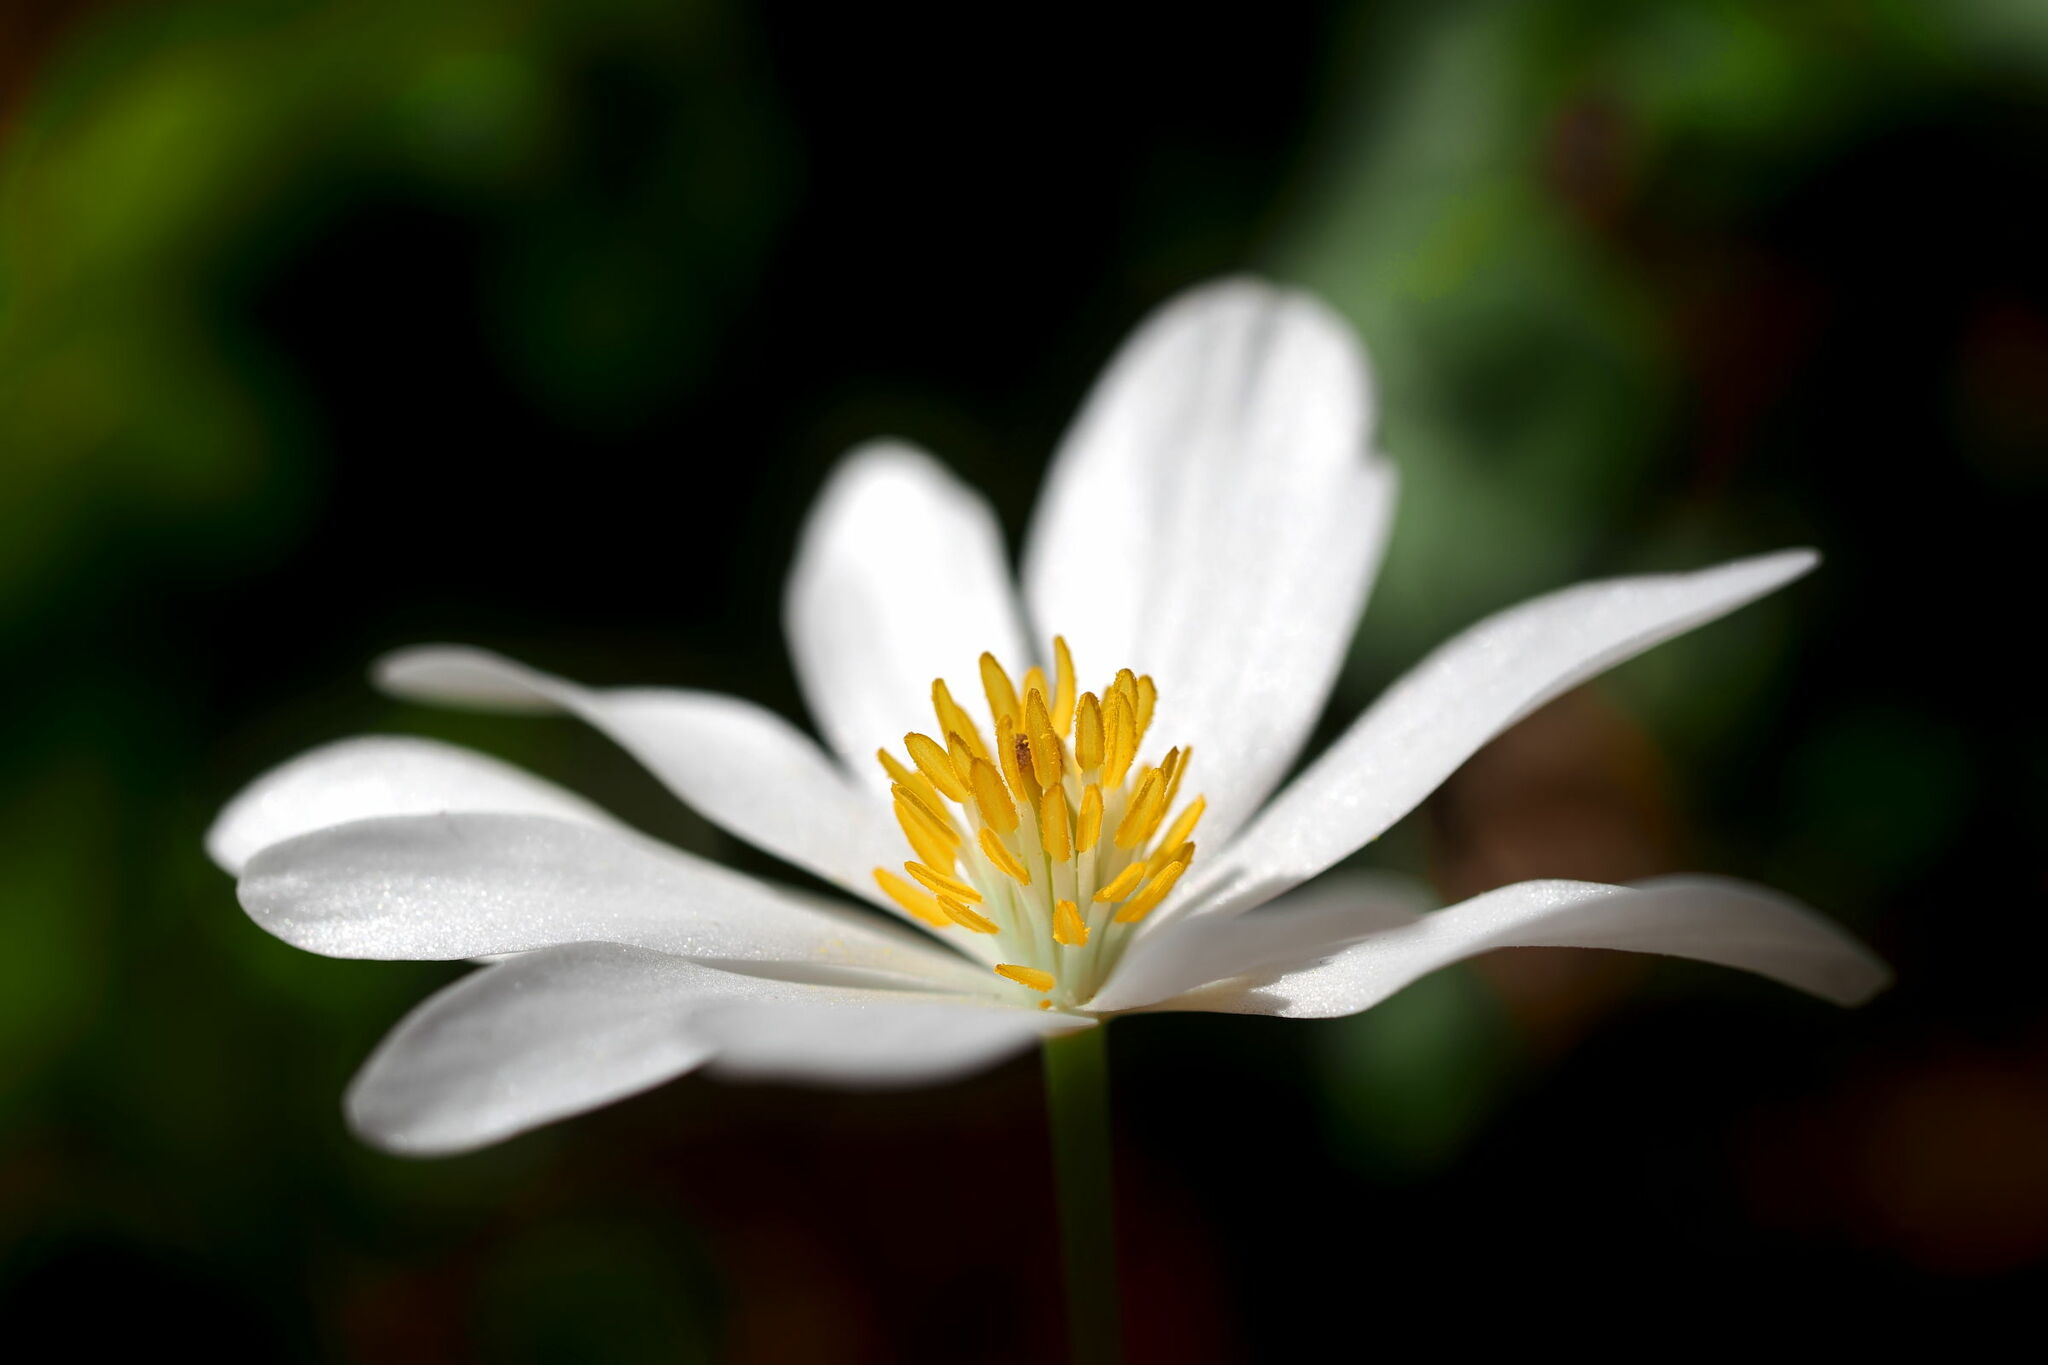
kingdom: Plantae
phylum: Tracheophyta
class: Magnoliopsida
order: Ranunculales
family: Papaveraceae
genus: Sanguinaria
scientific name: Sanguinaria canadensis
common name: Bloodroot
